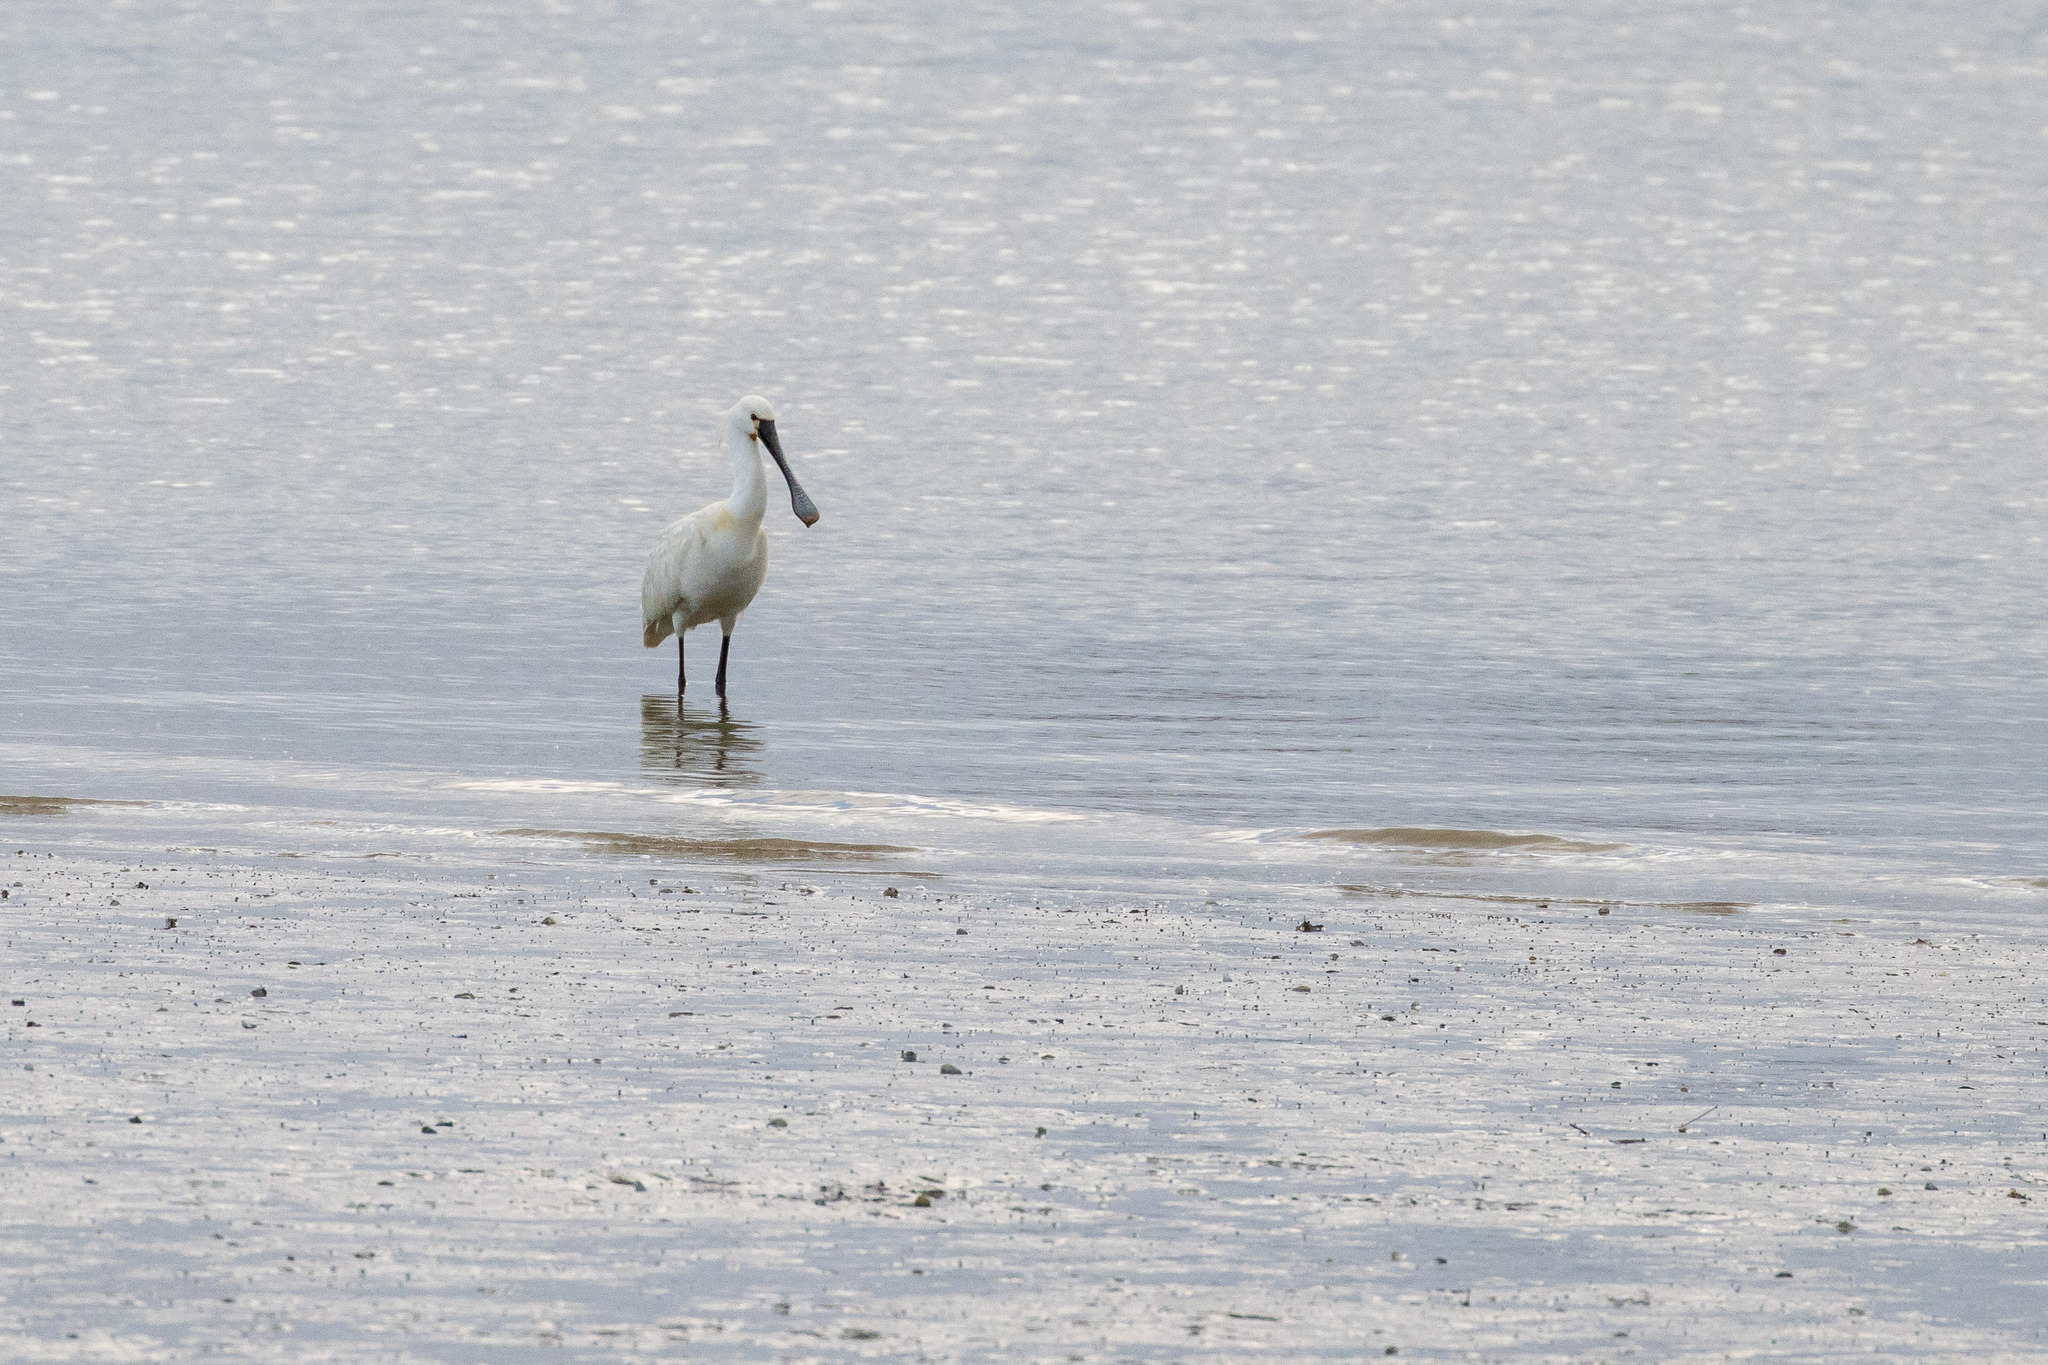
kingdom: Animalia
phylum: Chordata
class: Aves
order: Pelecaniformes
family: Threskiornithidae
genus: Platalea
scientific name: Platalea leucorodia
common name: Eurasian spoonbill
